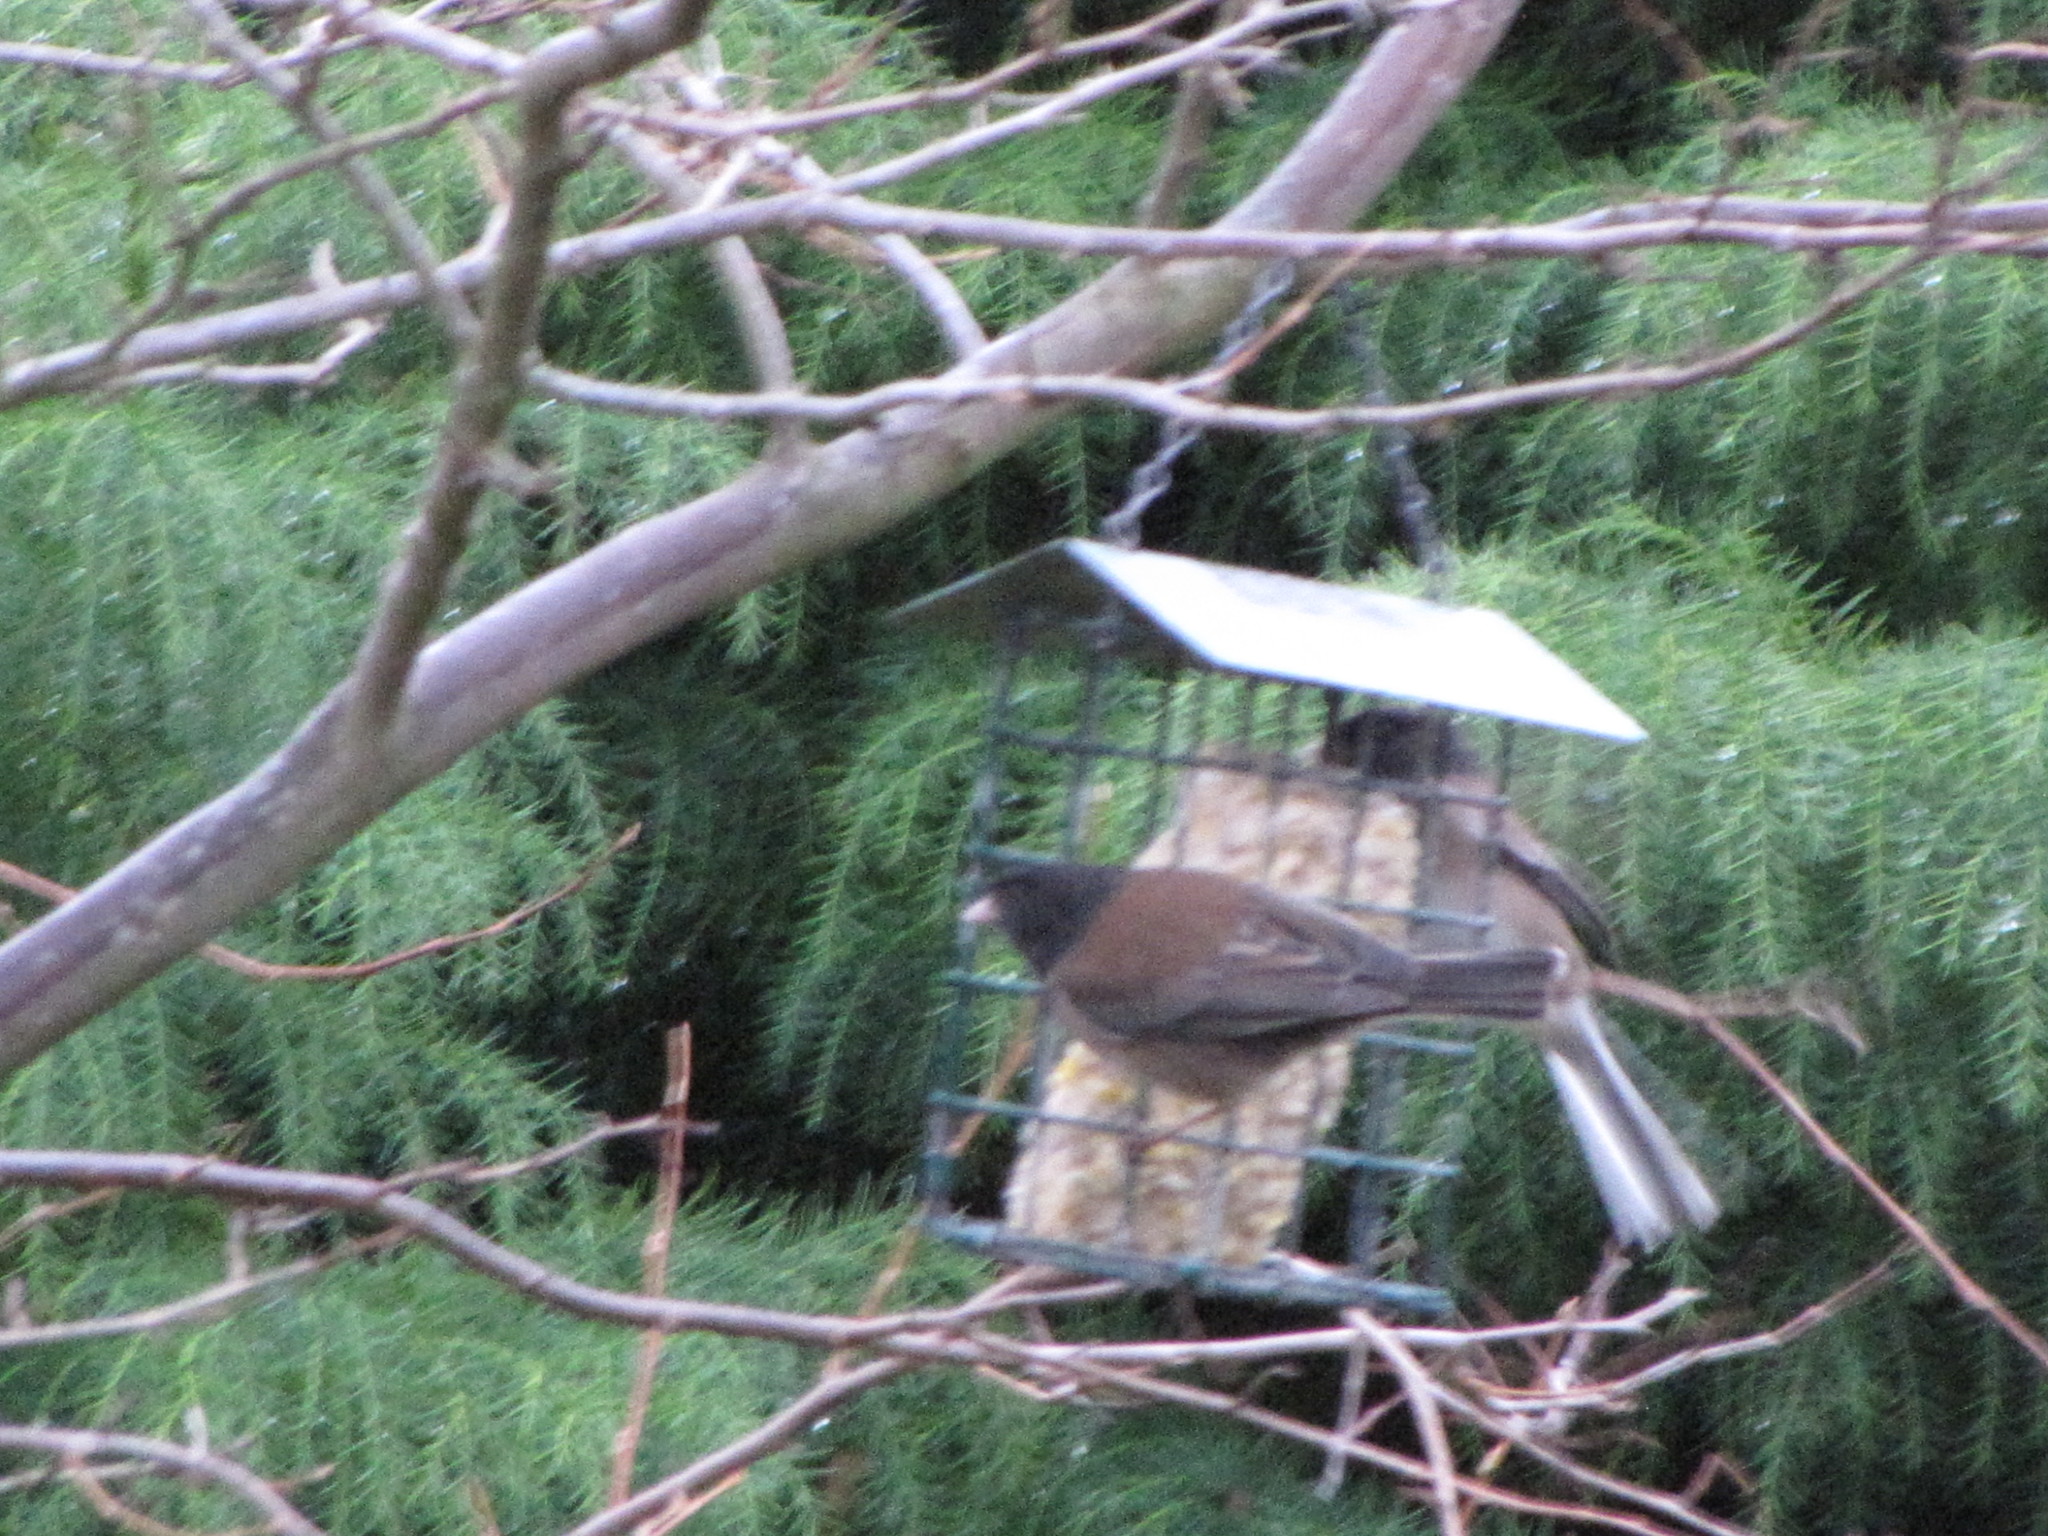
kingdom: Animalia
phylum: Chordata
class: Aves
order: Passeriformes
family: Passerellidae
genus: Junco
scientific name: Junco hyemalis
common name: Dark-eyed junco
